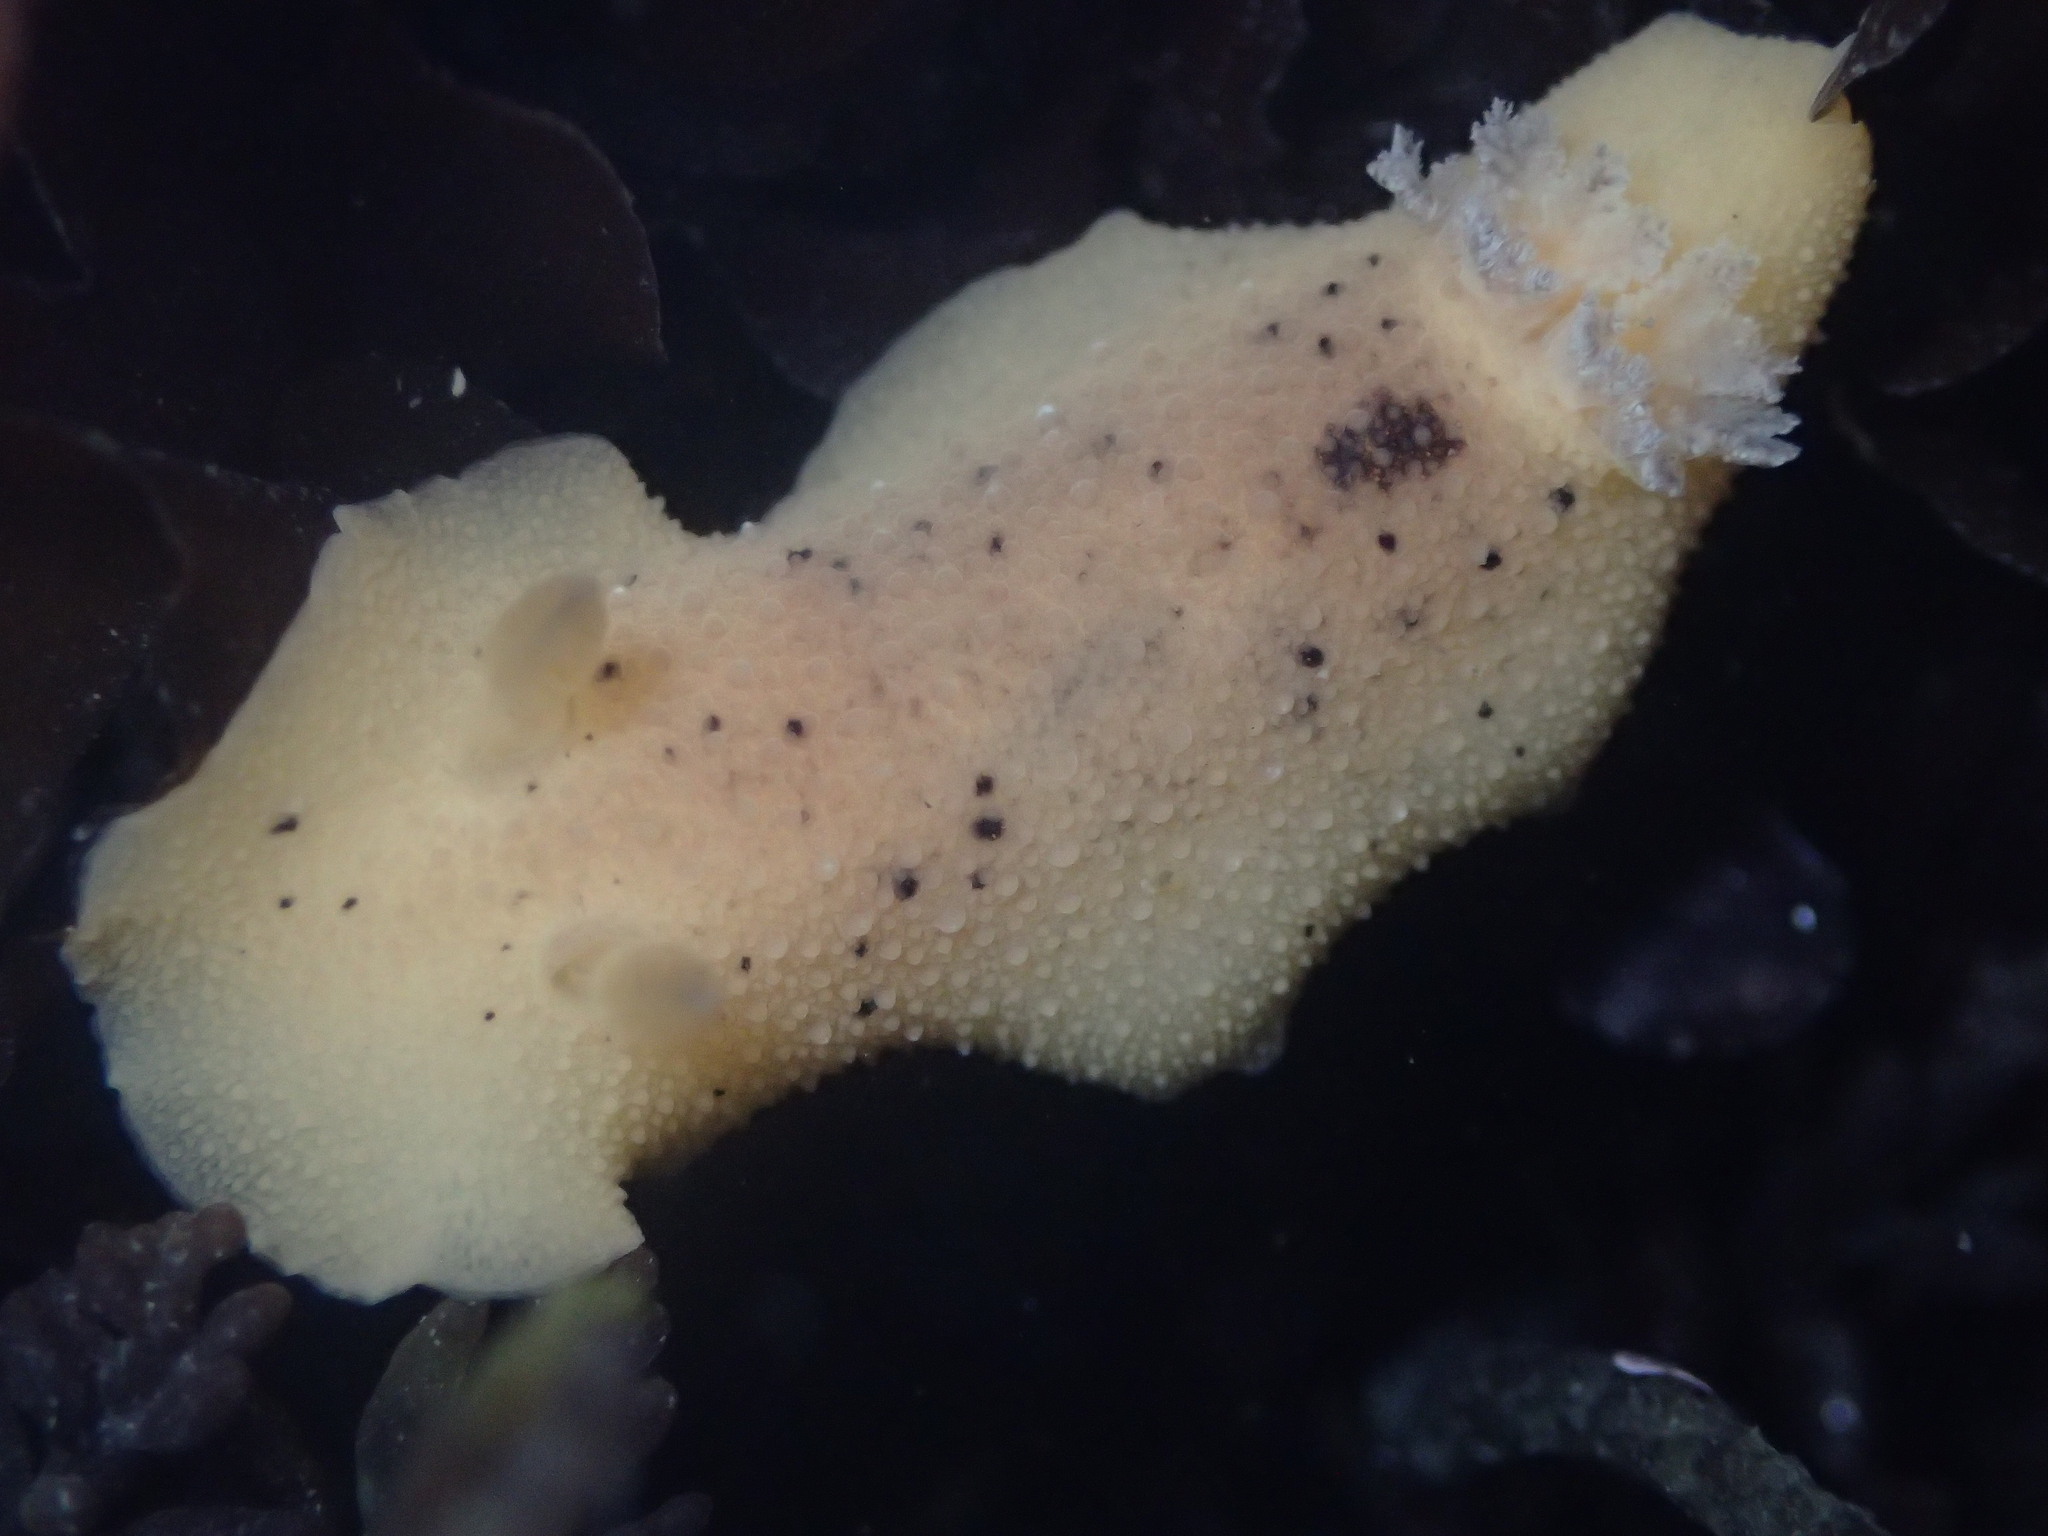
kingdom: Animalia
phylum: Mollusca
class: Gastropoda
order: Nudibranchia
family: Discodorididae
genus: Geitodoris
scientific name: Geitodoris heathi
